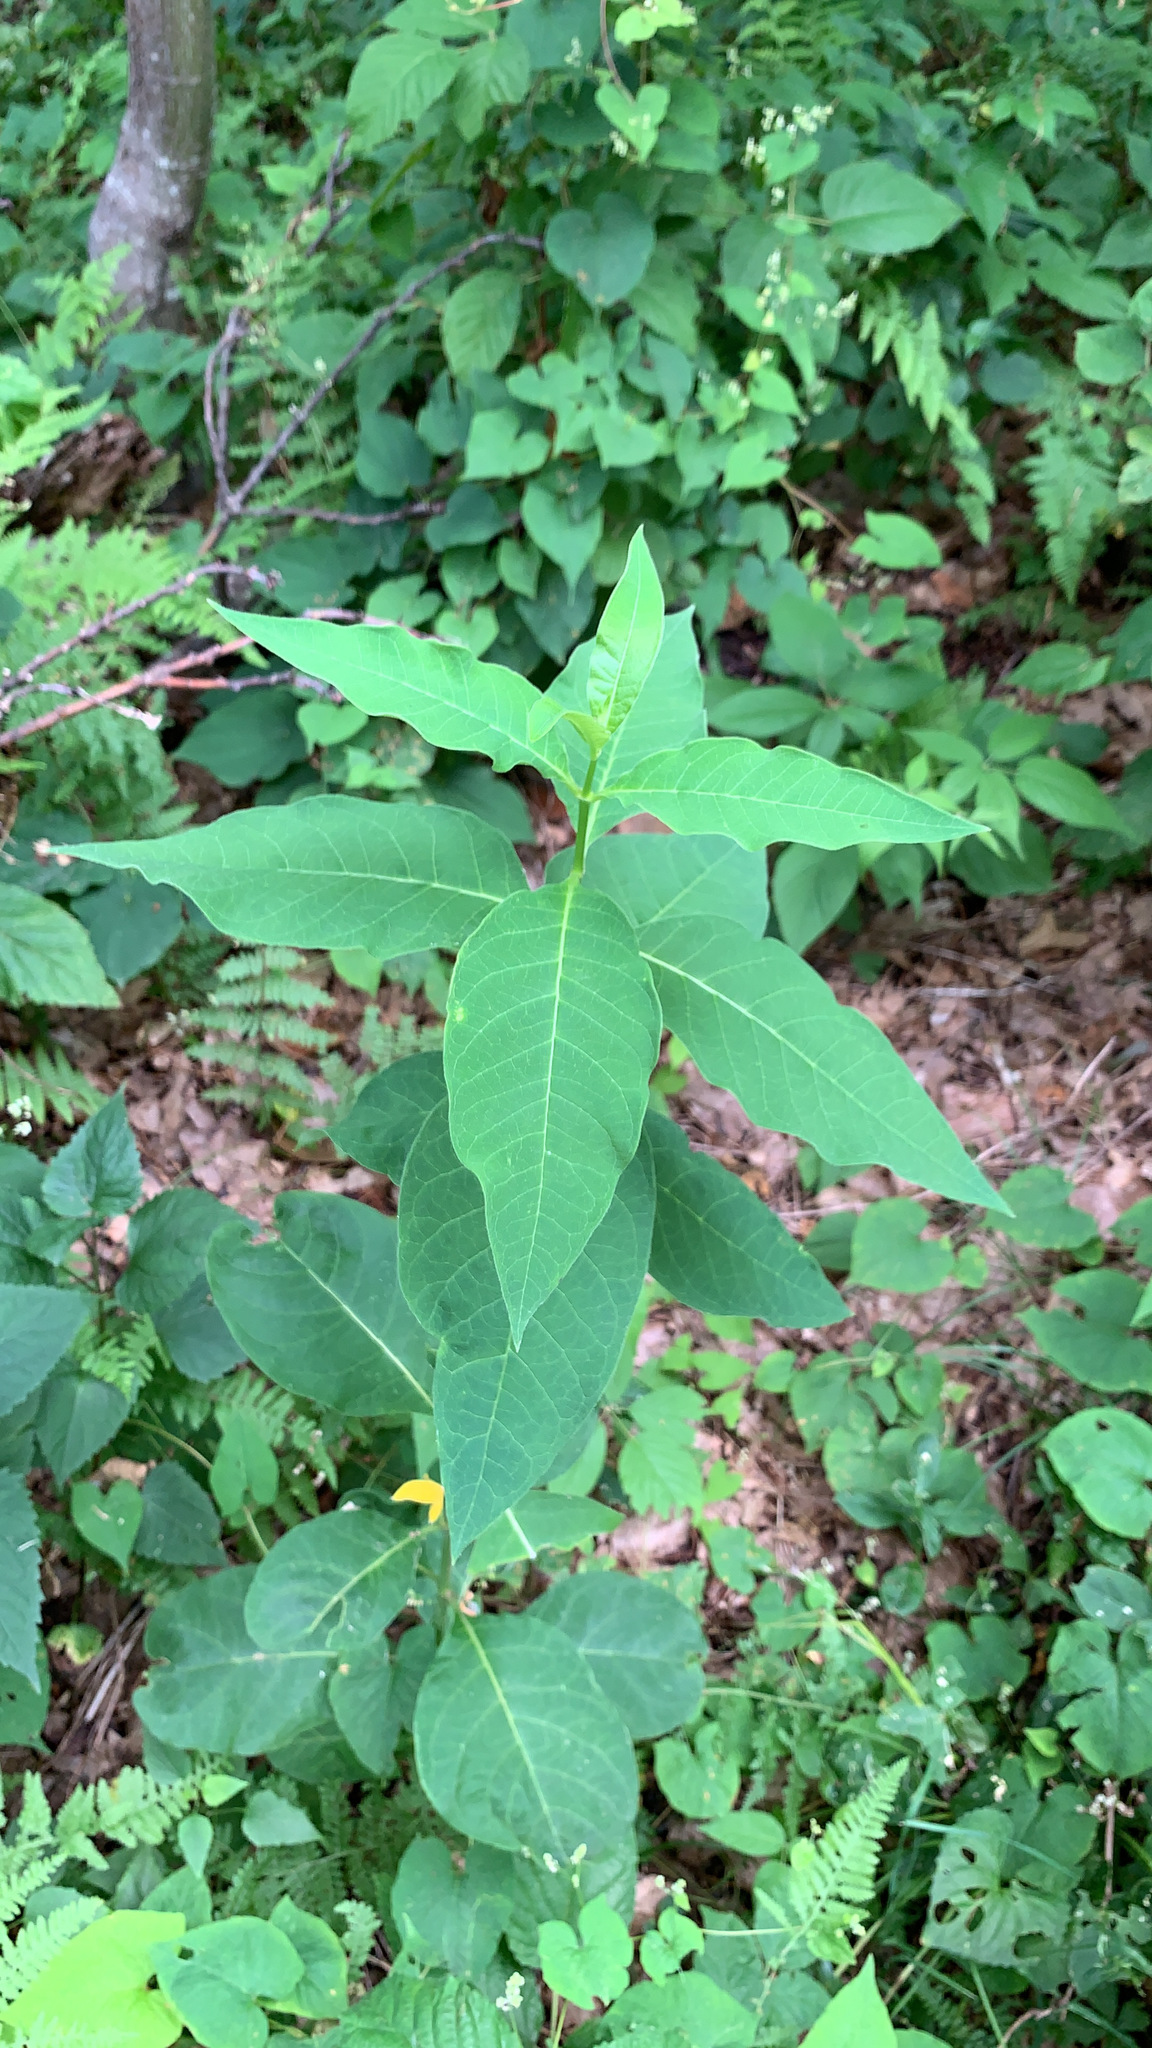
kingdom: Plantae
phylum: Tracheophyta
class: Magnoliopsida
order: Gentianales
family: Apocynaceae
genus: Asclepias
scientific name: Asclepias exaltata
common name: Poke milkweed
